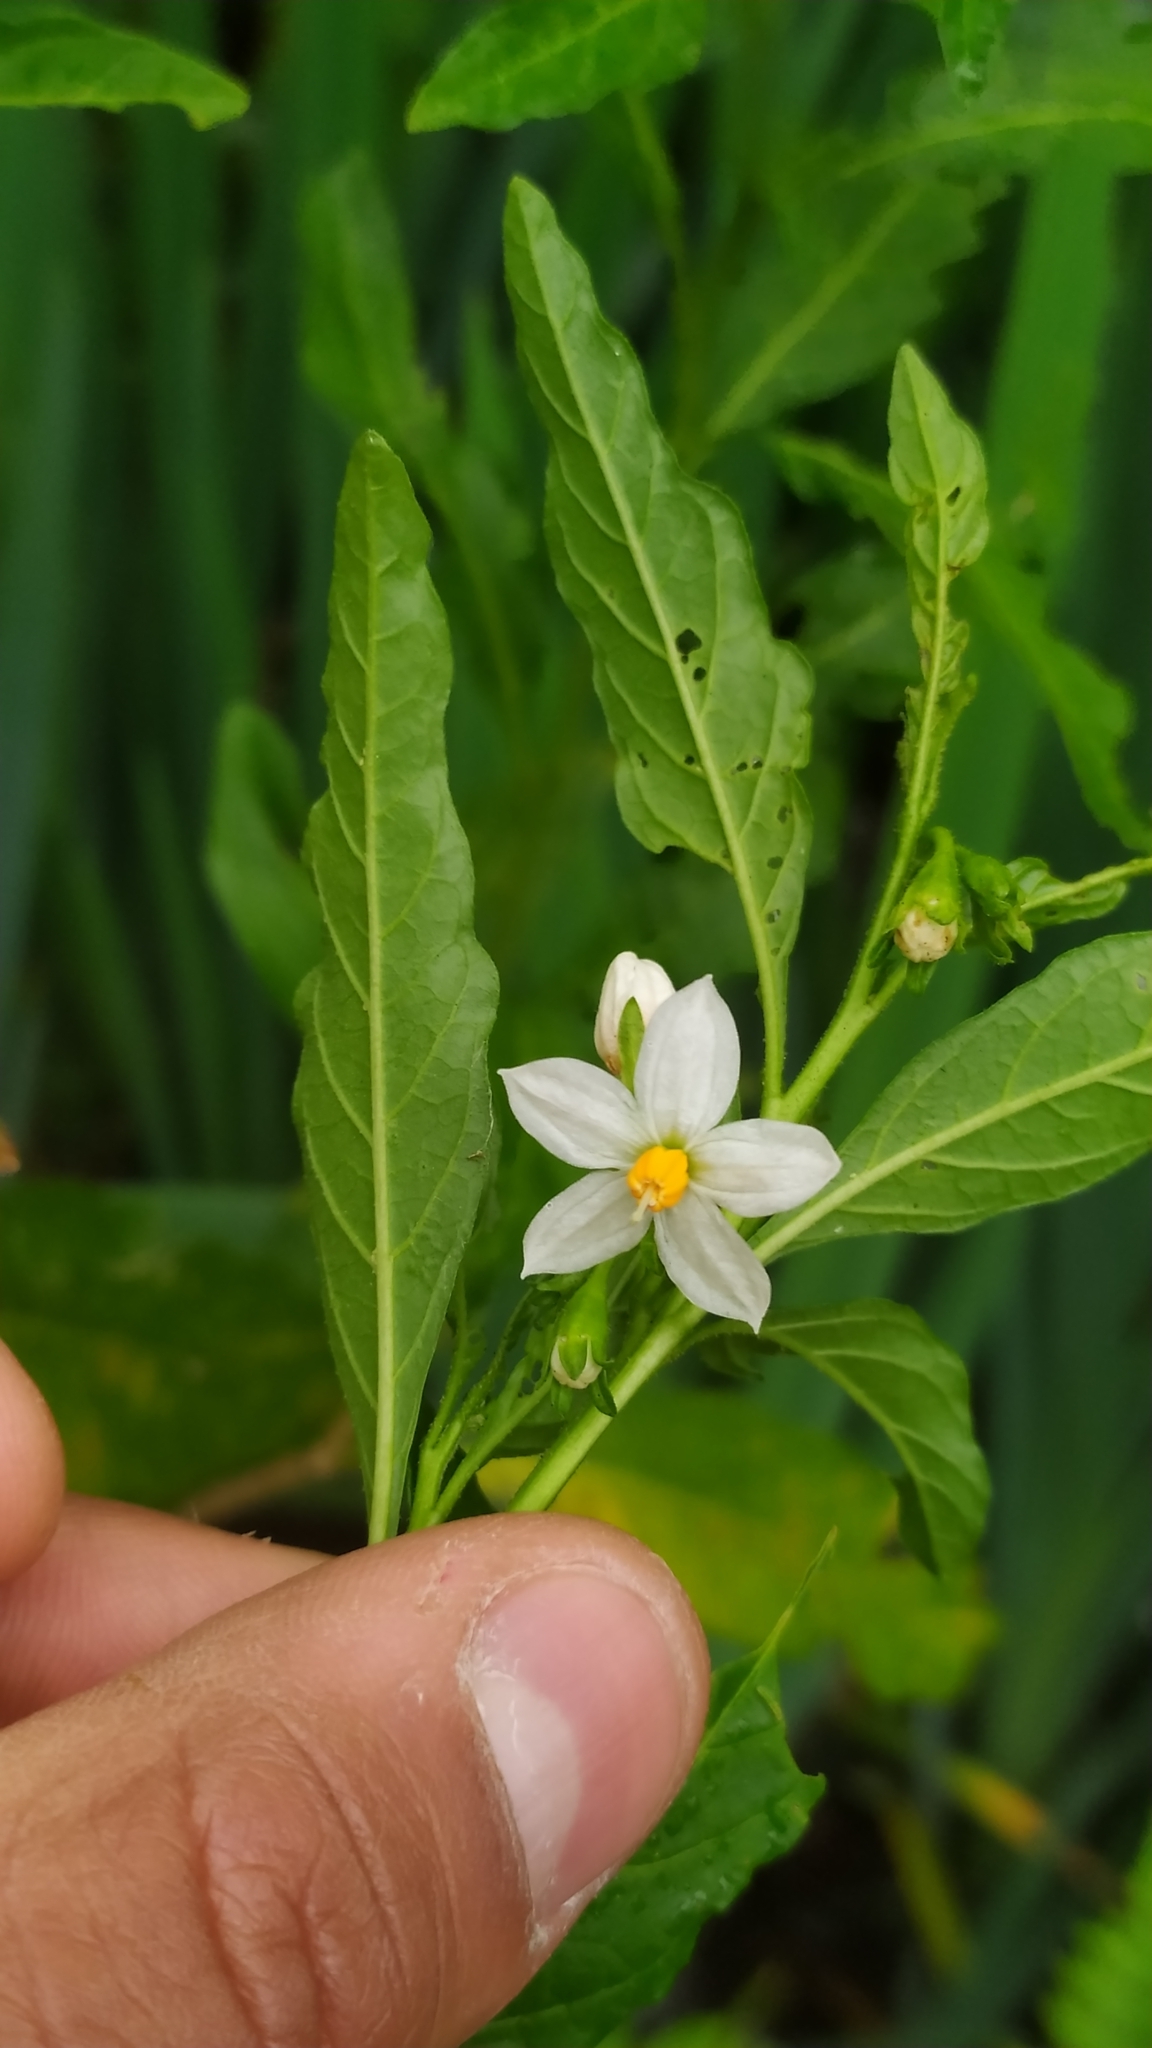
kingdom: Plantae
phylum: Tracheophyta
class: Magnoliopsida
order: Solanales
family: Solanaceae
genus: Solanum
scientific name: Solanum pseudocapsicum
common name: Jerusalem cherry
